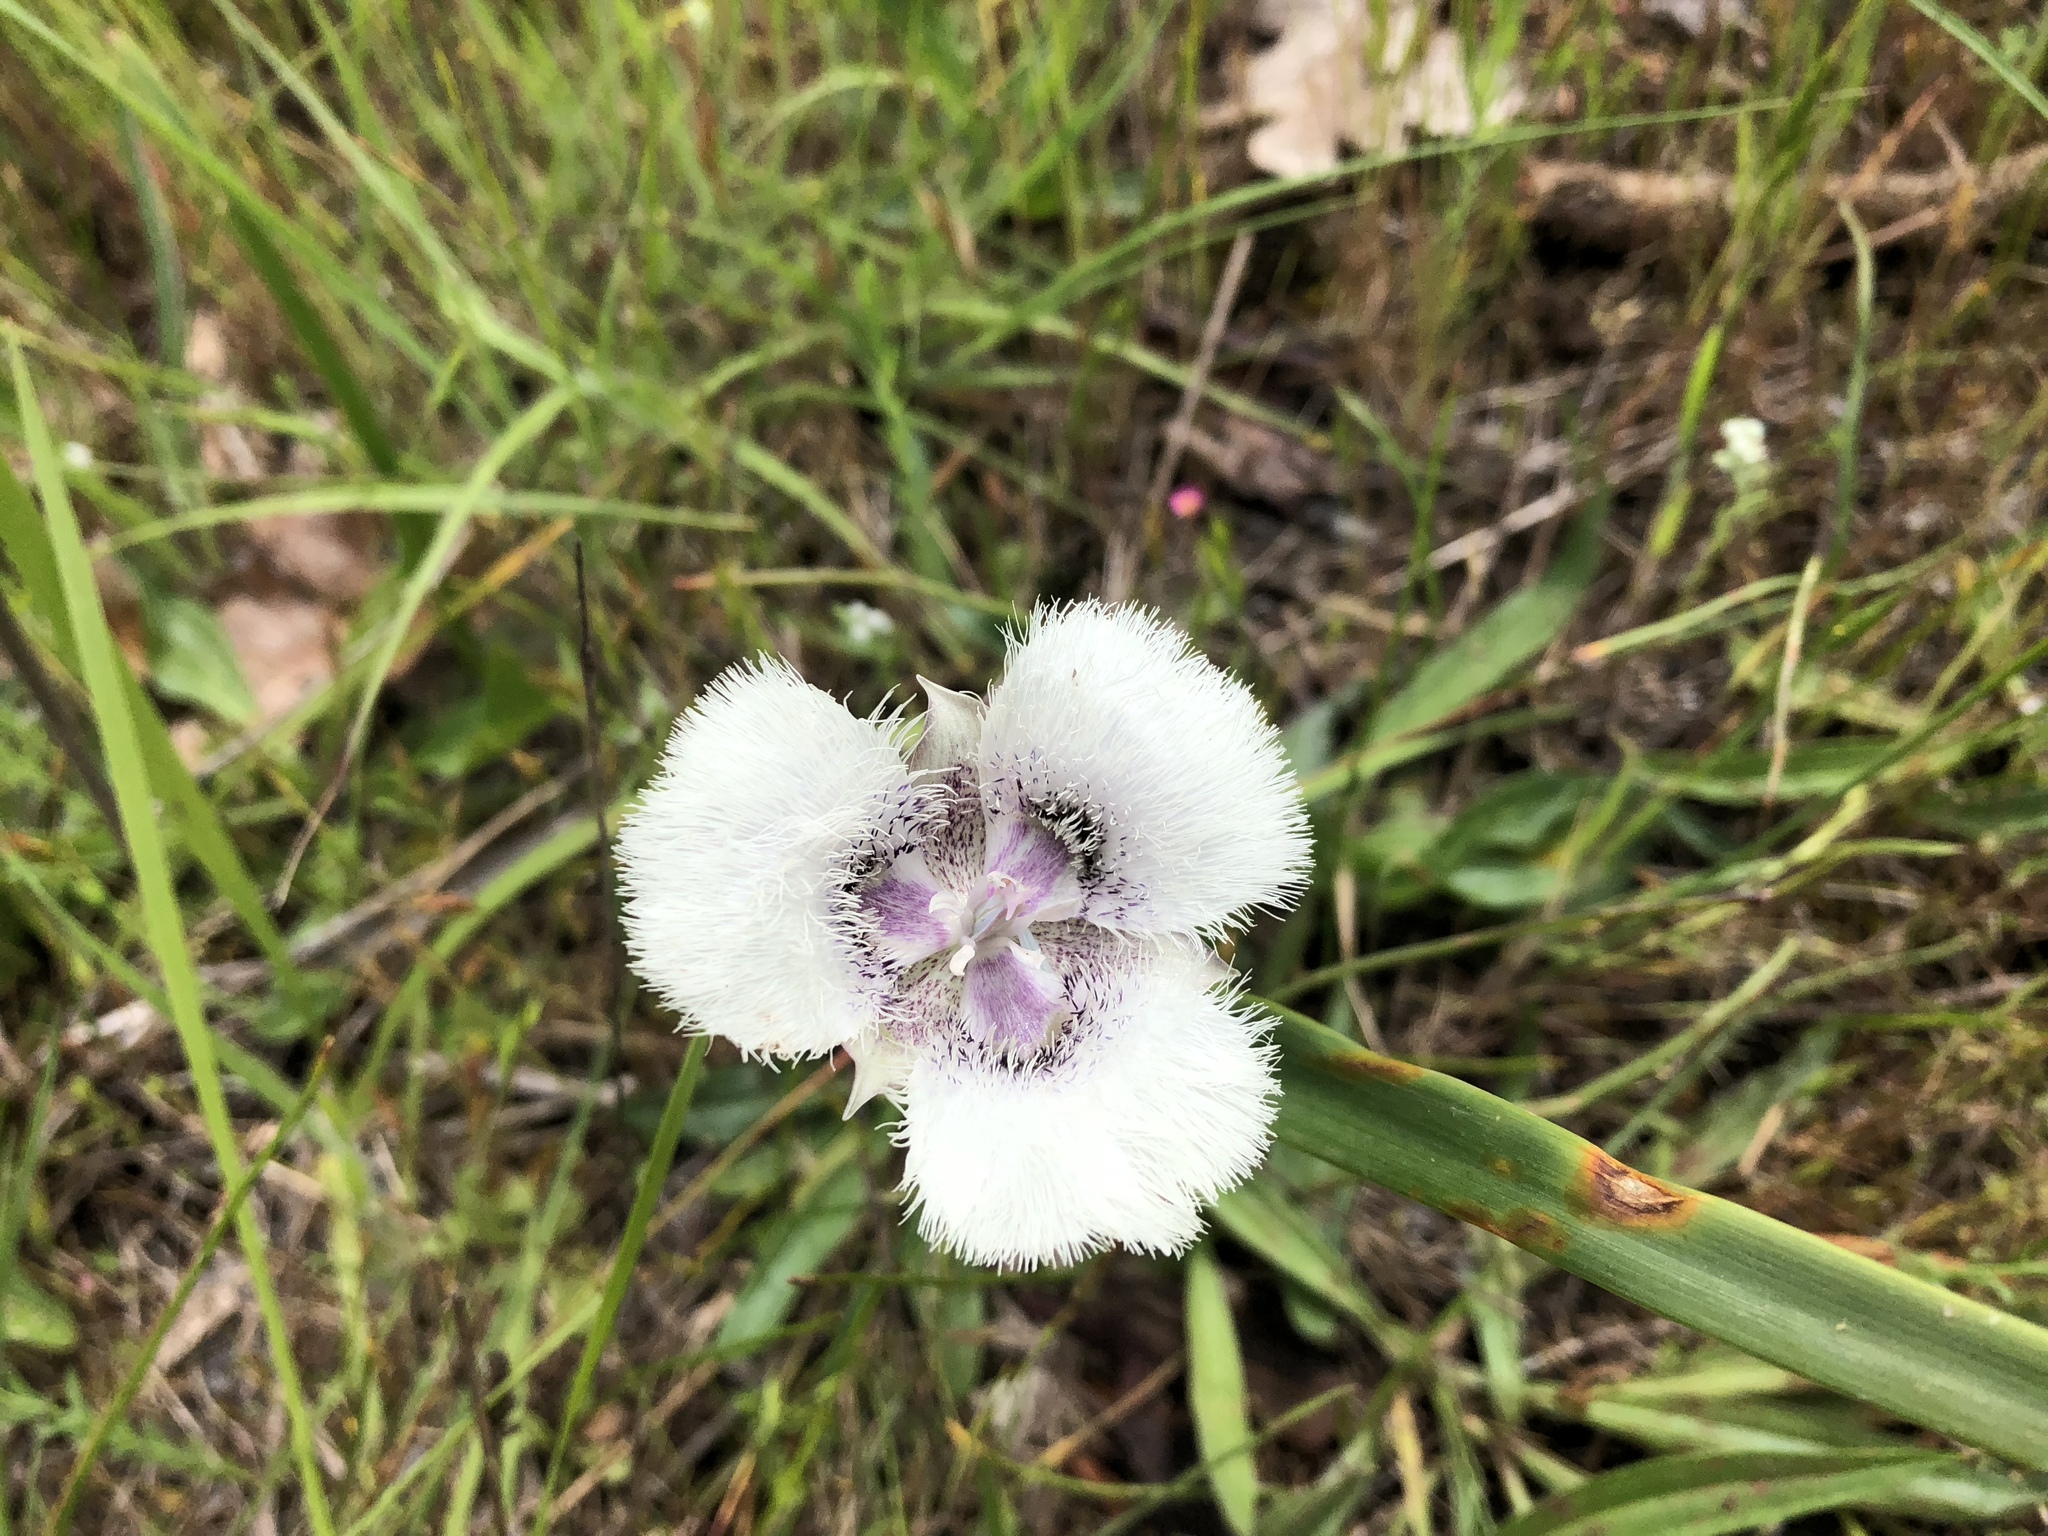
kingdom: Plantae
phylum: Tracheophyta
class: Liliopsida
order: Liliales
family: Liliaceae
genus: Calochortus
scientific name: Calochortus tolmiei
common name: Pussy-ears
